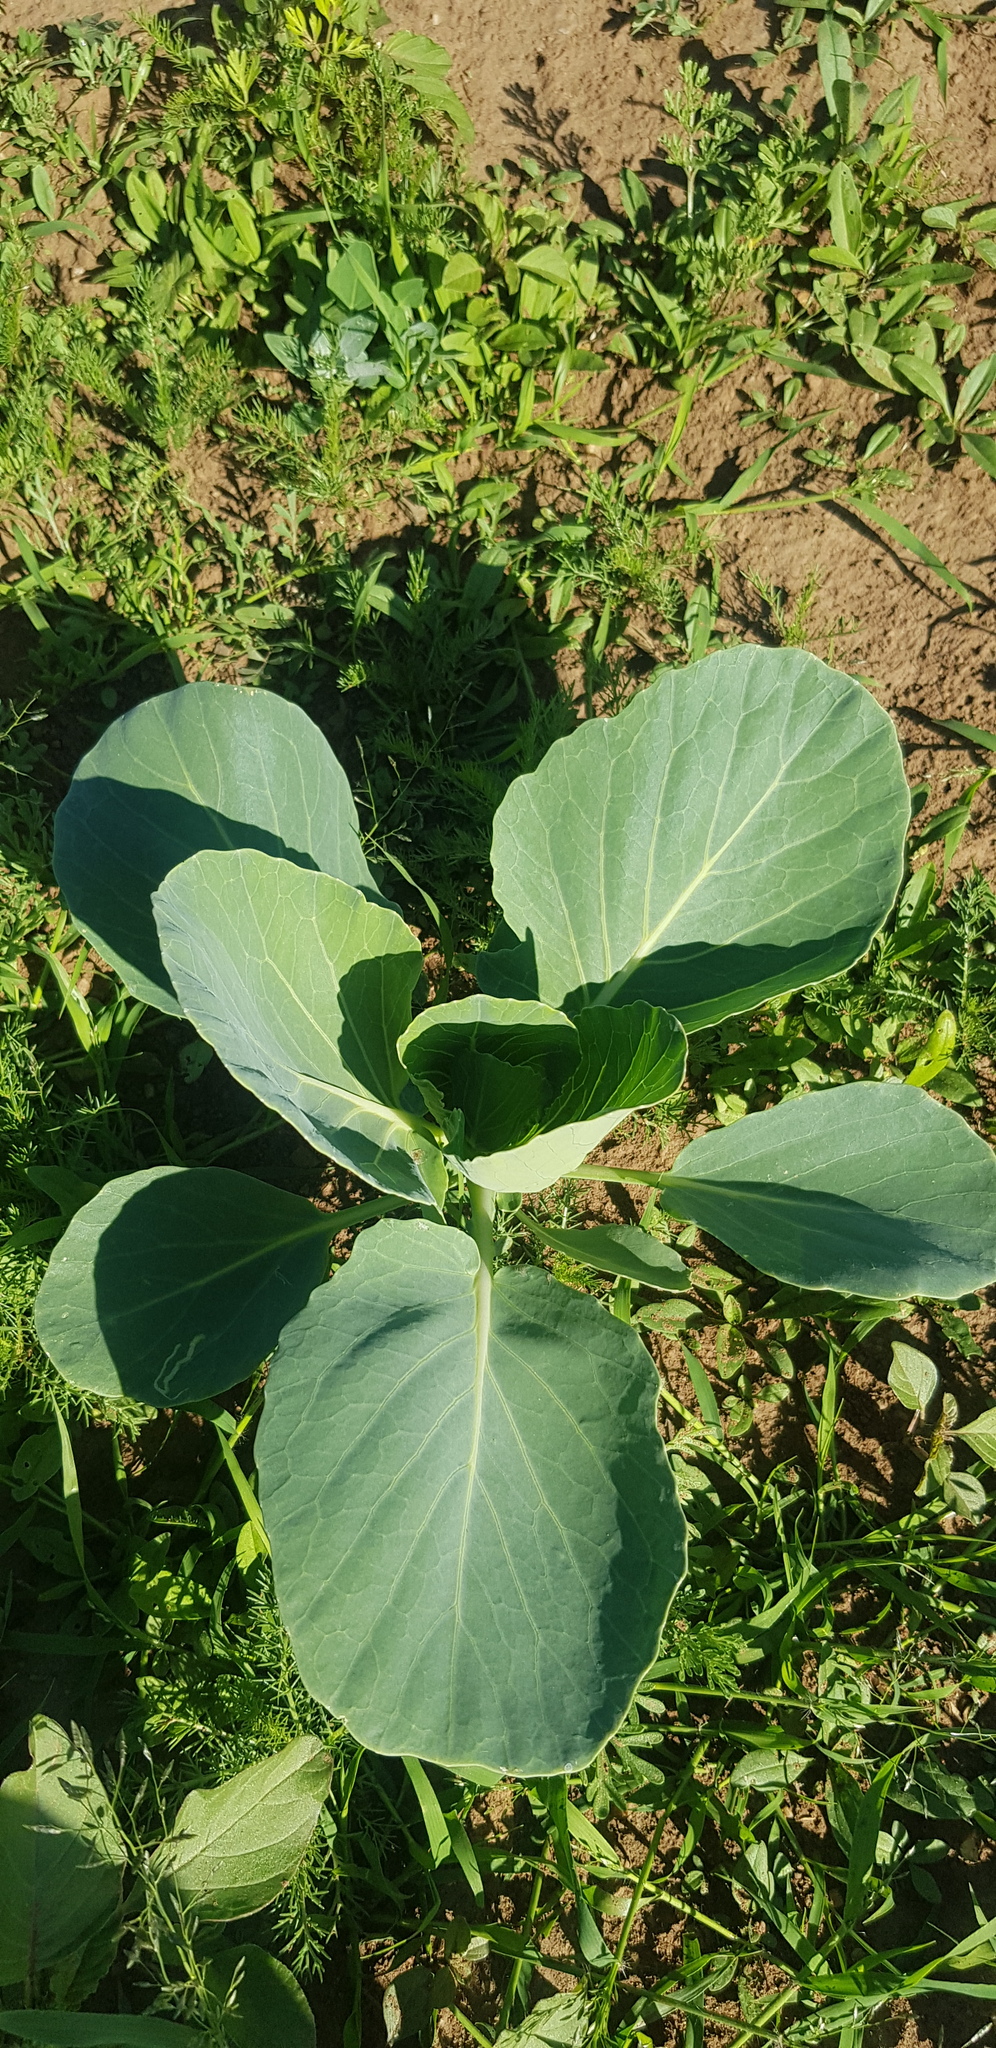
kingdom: Plantae
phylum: Tracheophyta
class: Magnoliopsida
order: Brassicales
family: Brassicaceae
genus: Brassica
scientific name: Brassica napus
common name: Rape
